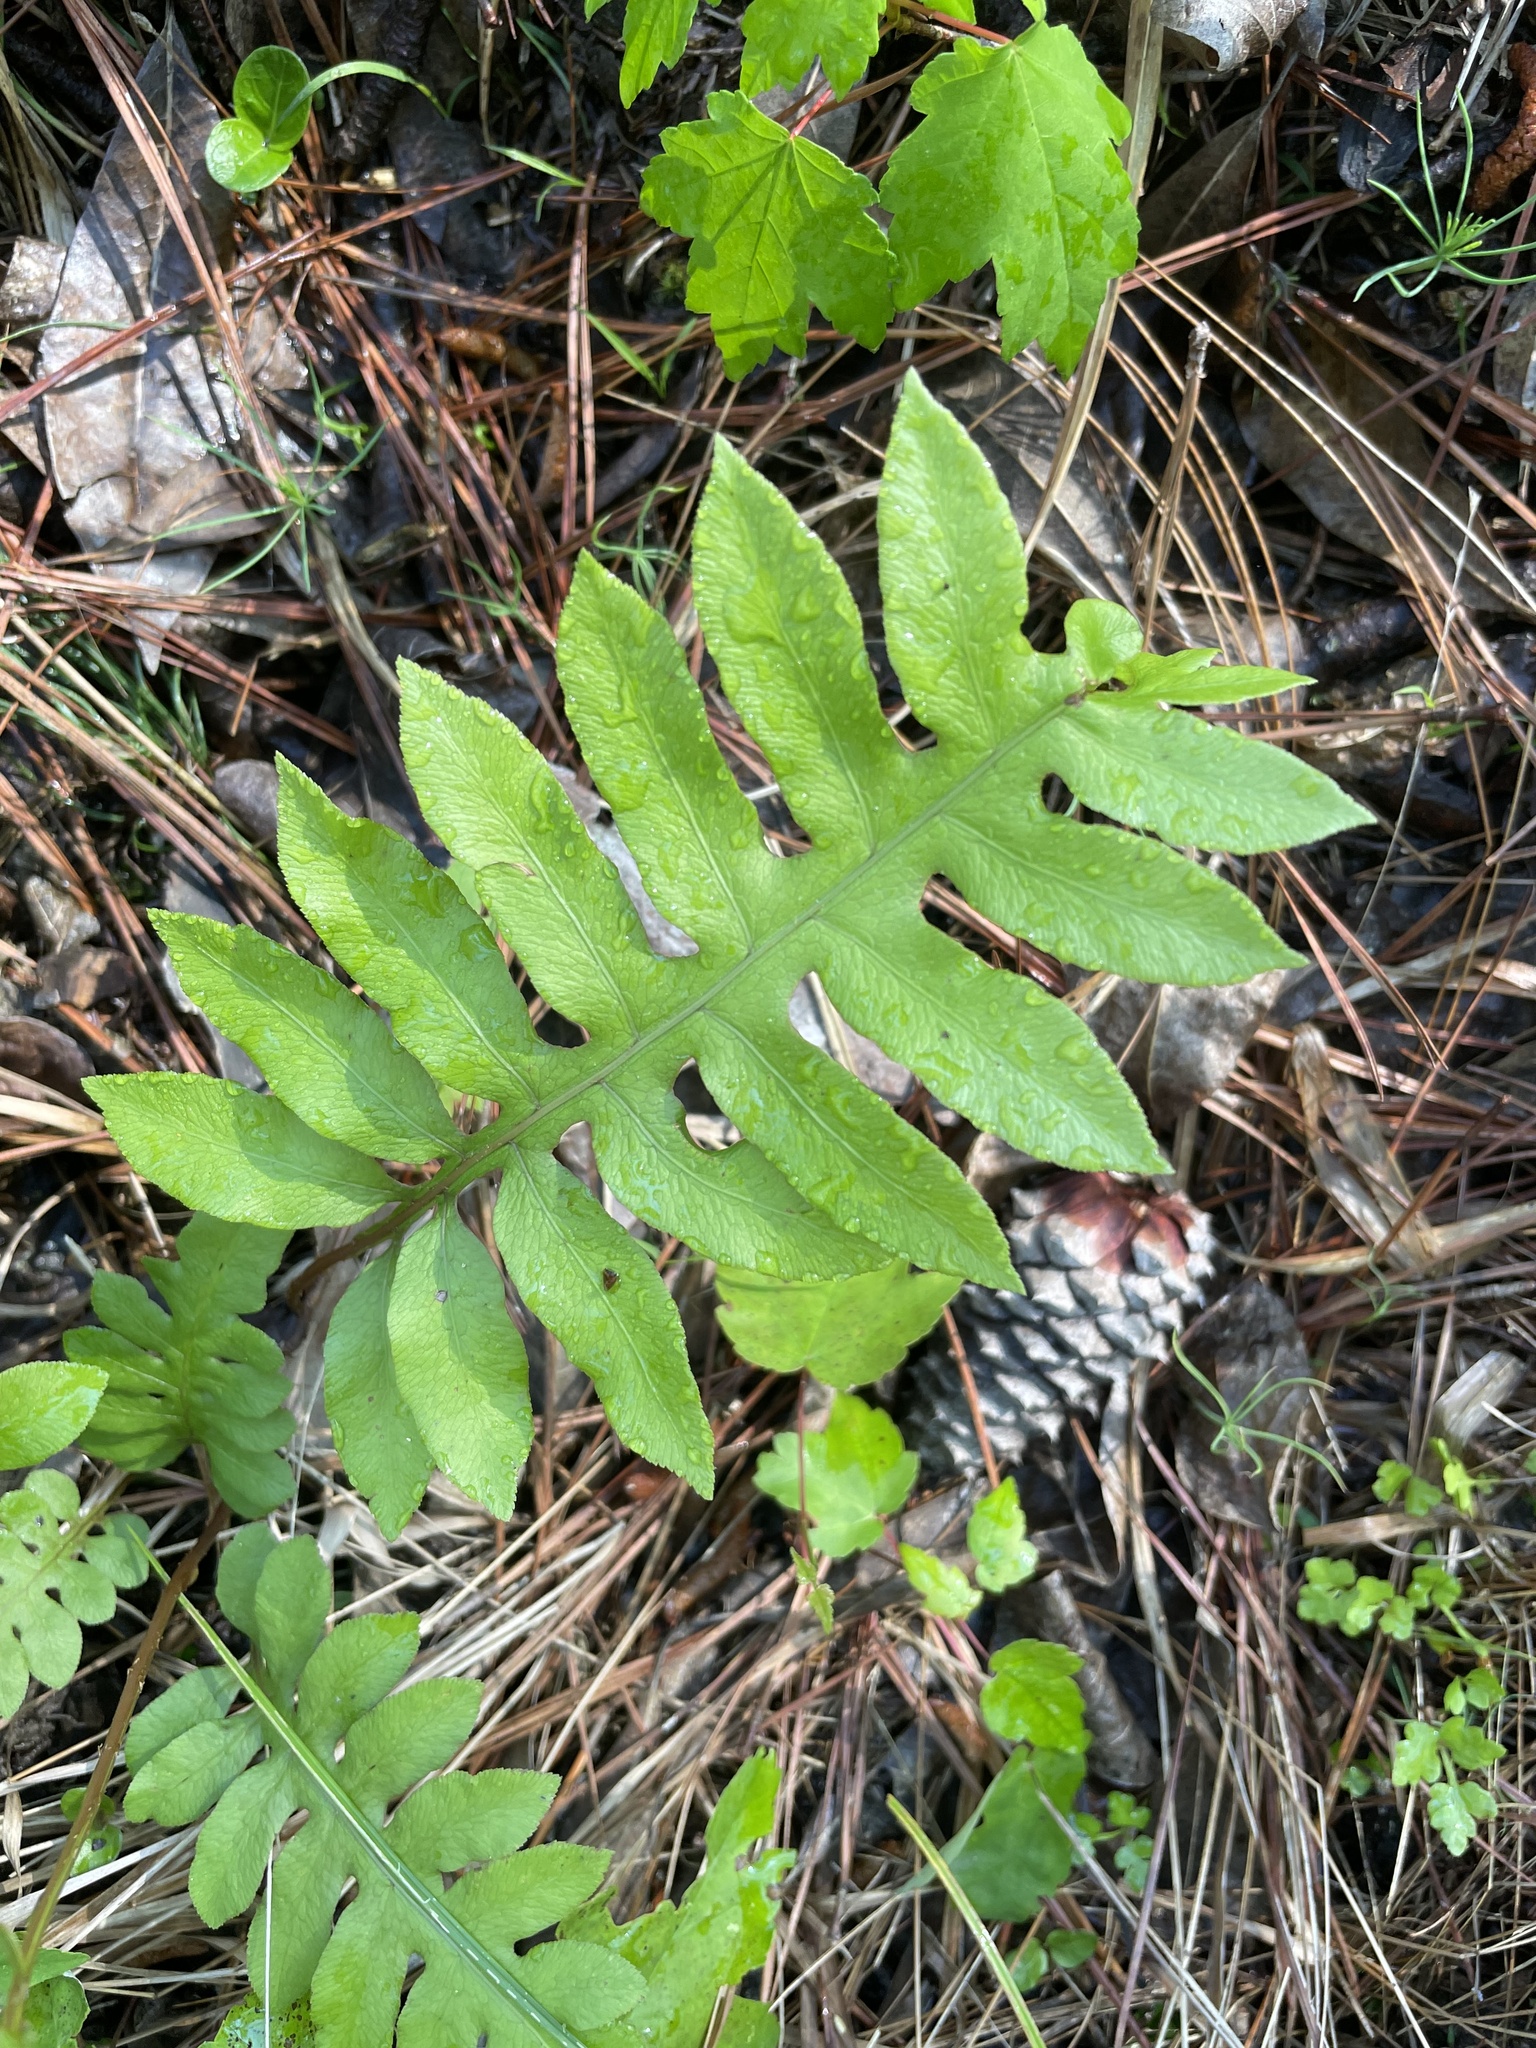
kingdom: Plantae
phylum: Tracheophyta
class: Polypodiopsida
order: Polypodiales
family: Blechnaceae
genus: Lorinseria
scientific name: Lorinseria areolata
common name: Dwarf chain fern
